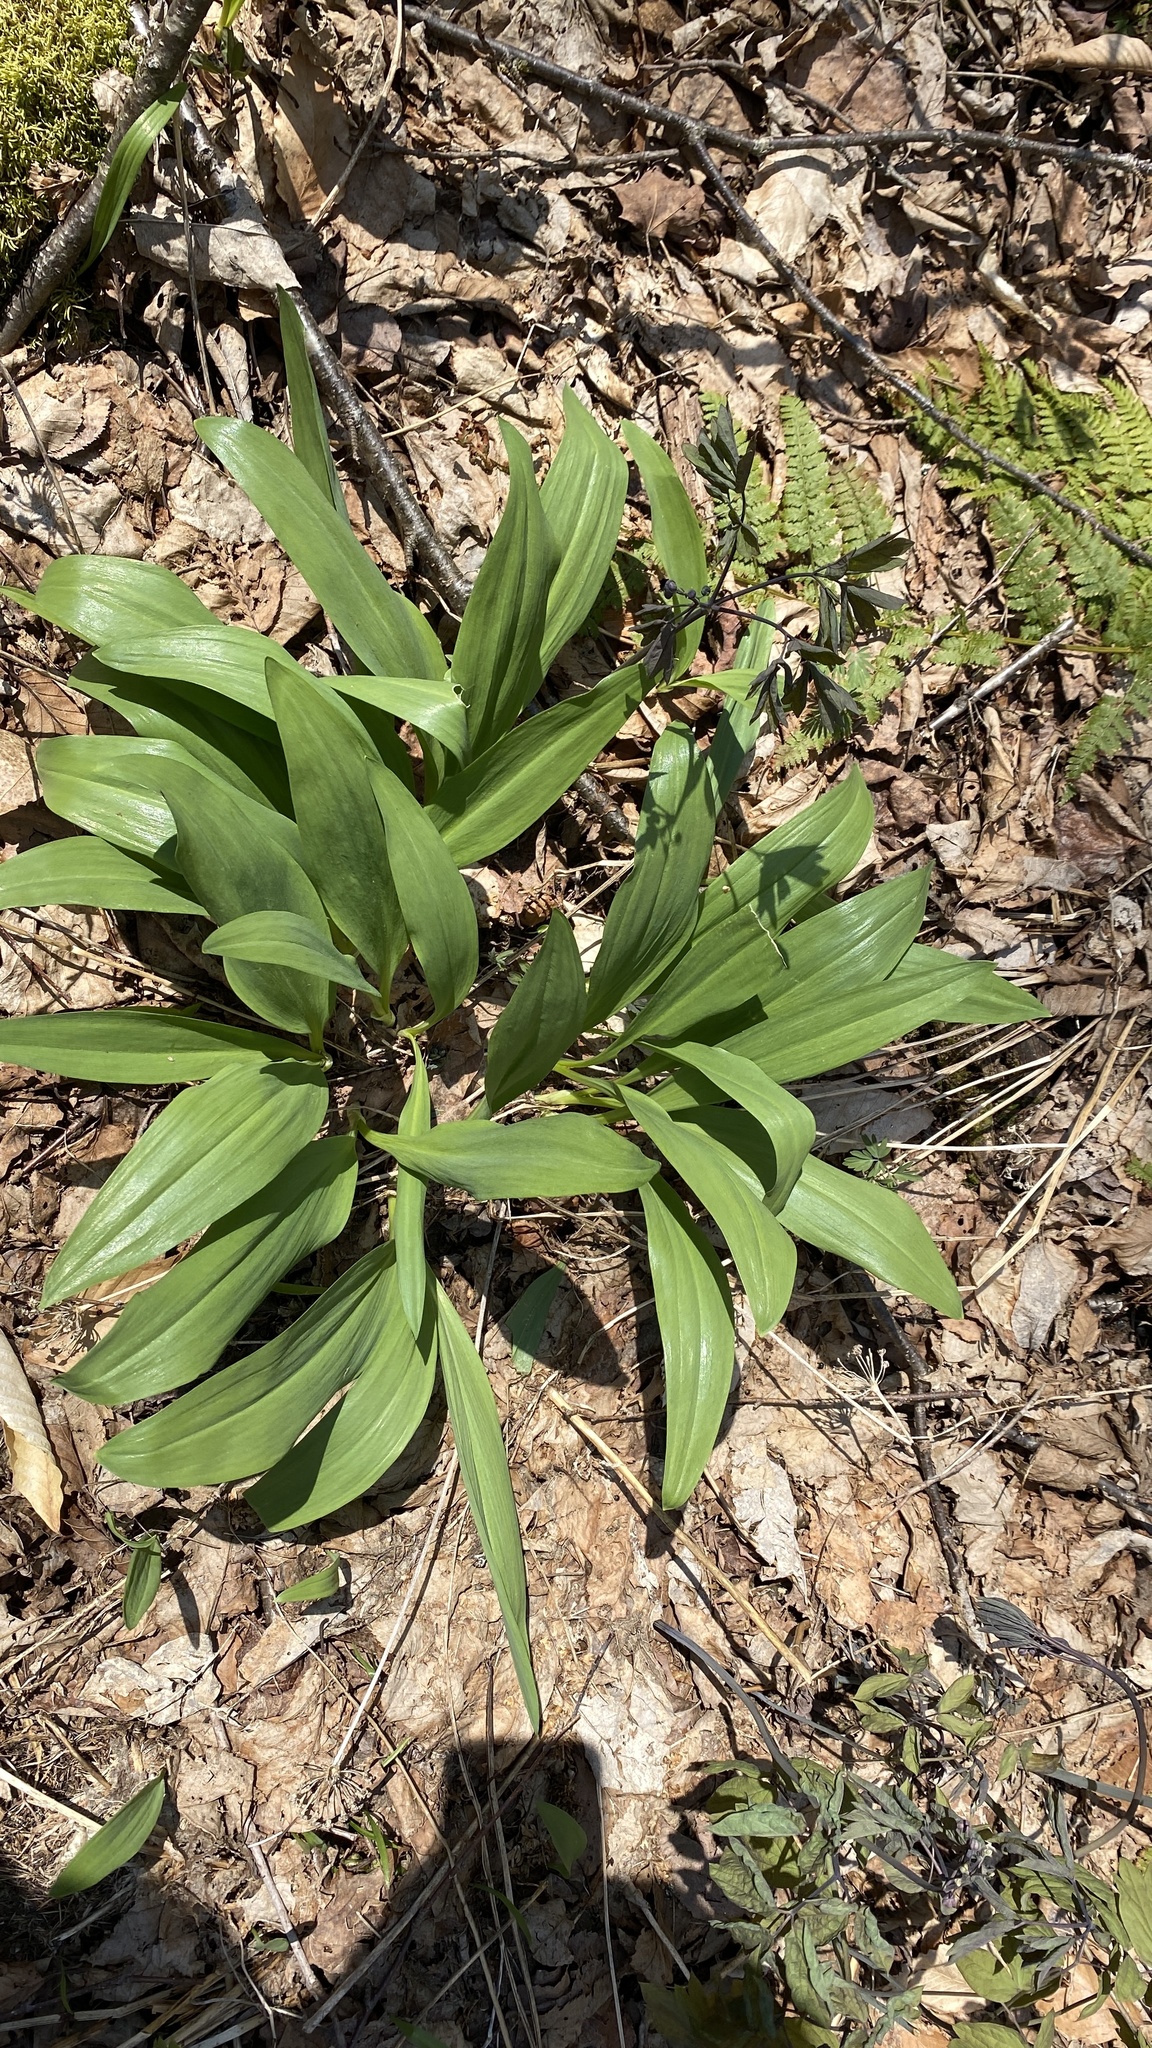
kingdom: Plantae
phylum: Tracheophyta
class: Liliopsida
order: Asparagales
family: Amaryllidaceae
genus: Allium
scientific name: Allium tricoccum
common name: Ramp
